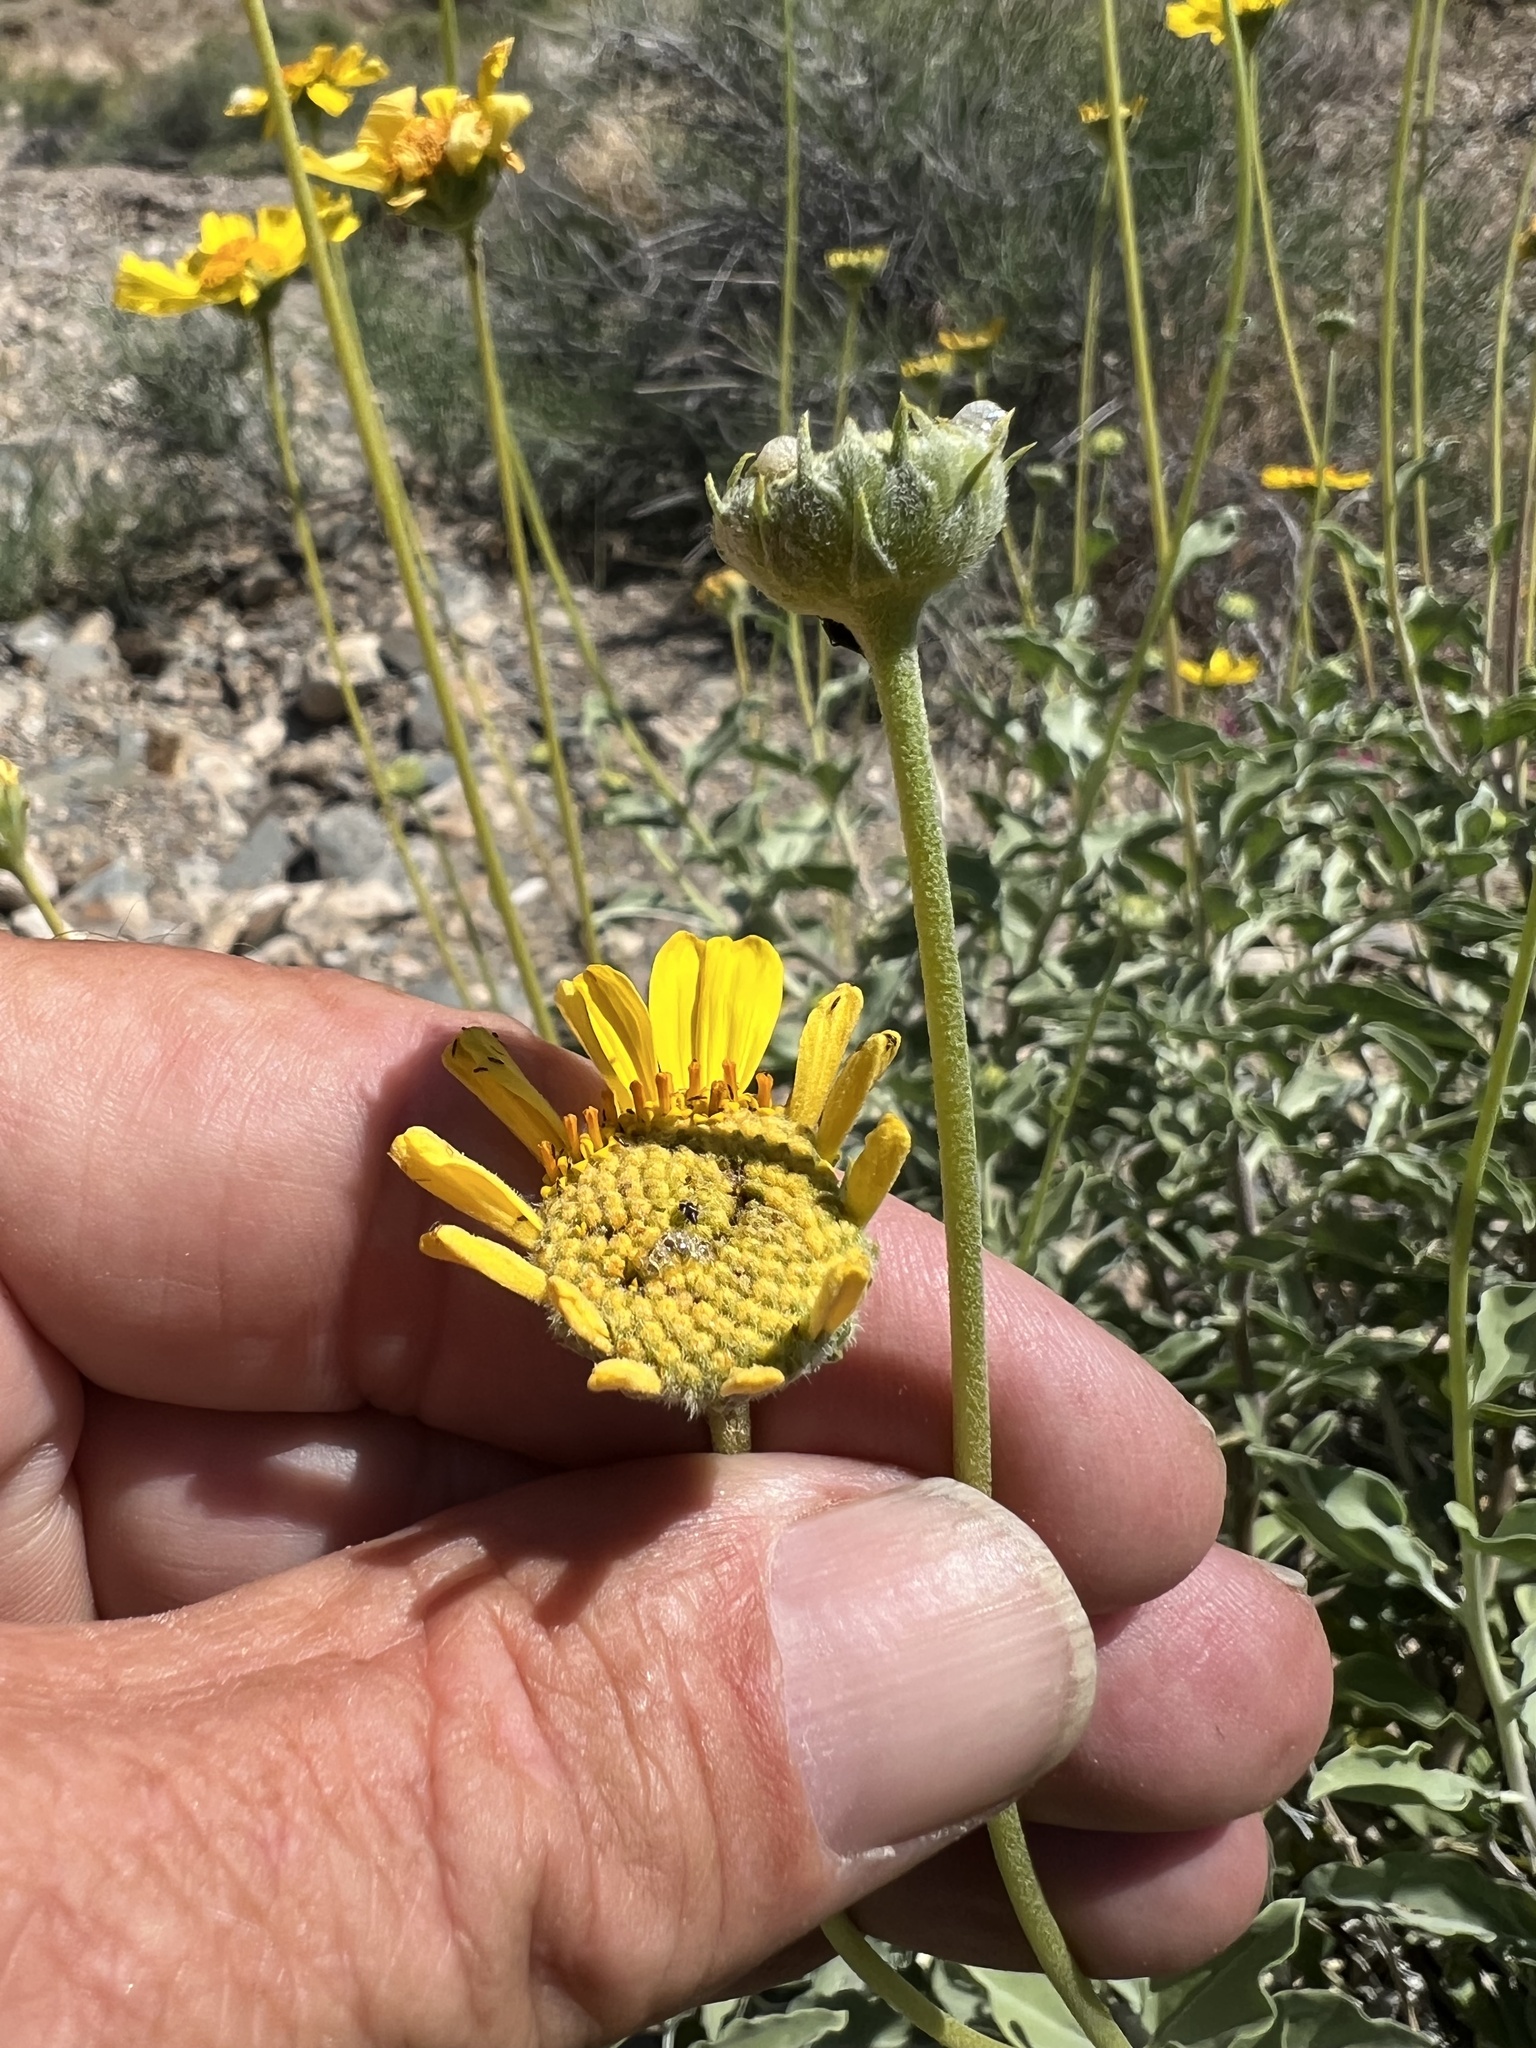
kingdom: Plantae
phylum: Tracheophyta
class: Magnoliopsida
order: Asterales
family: Asteraceae
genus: Encelia
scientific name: Encelia actoni
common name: Acton encelia
